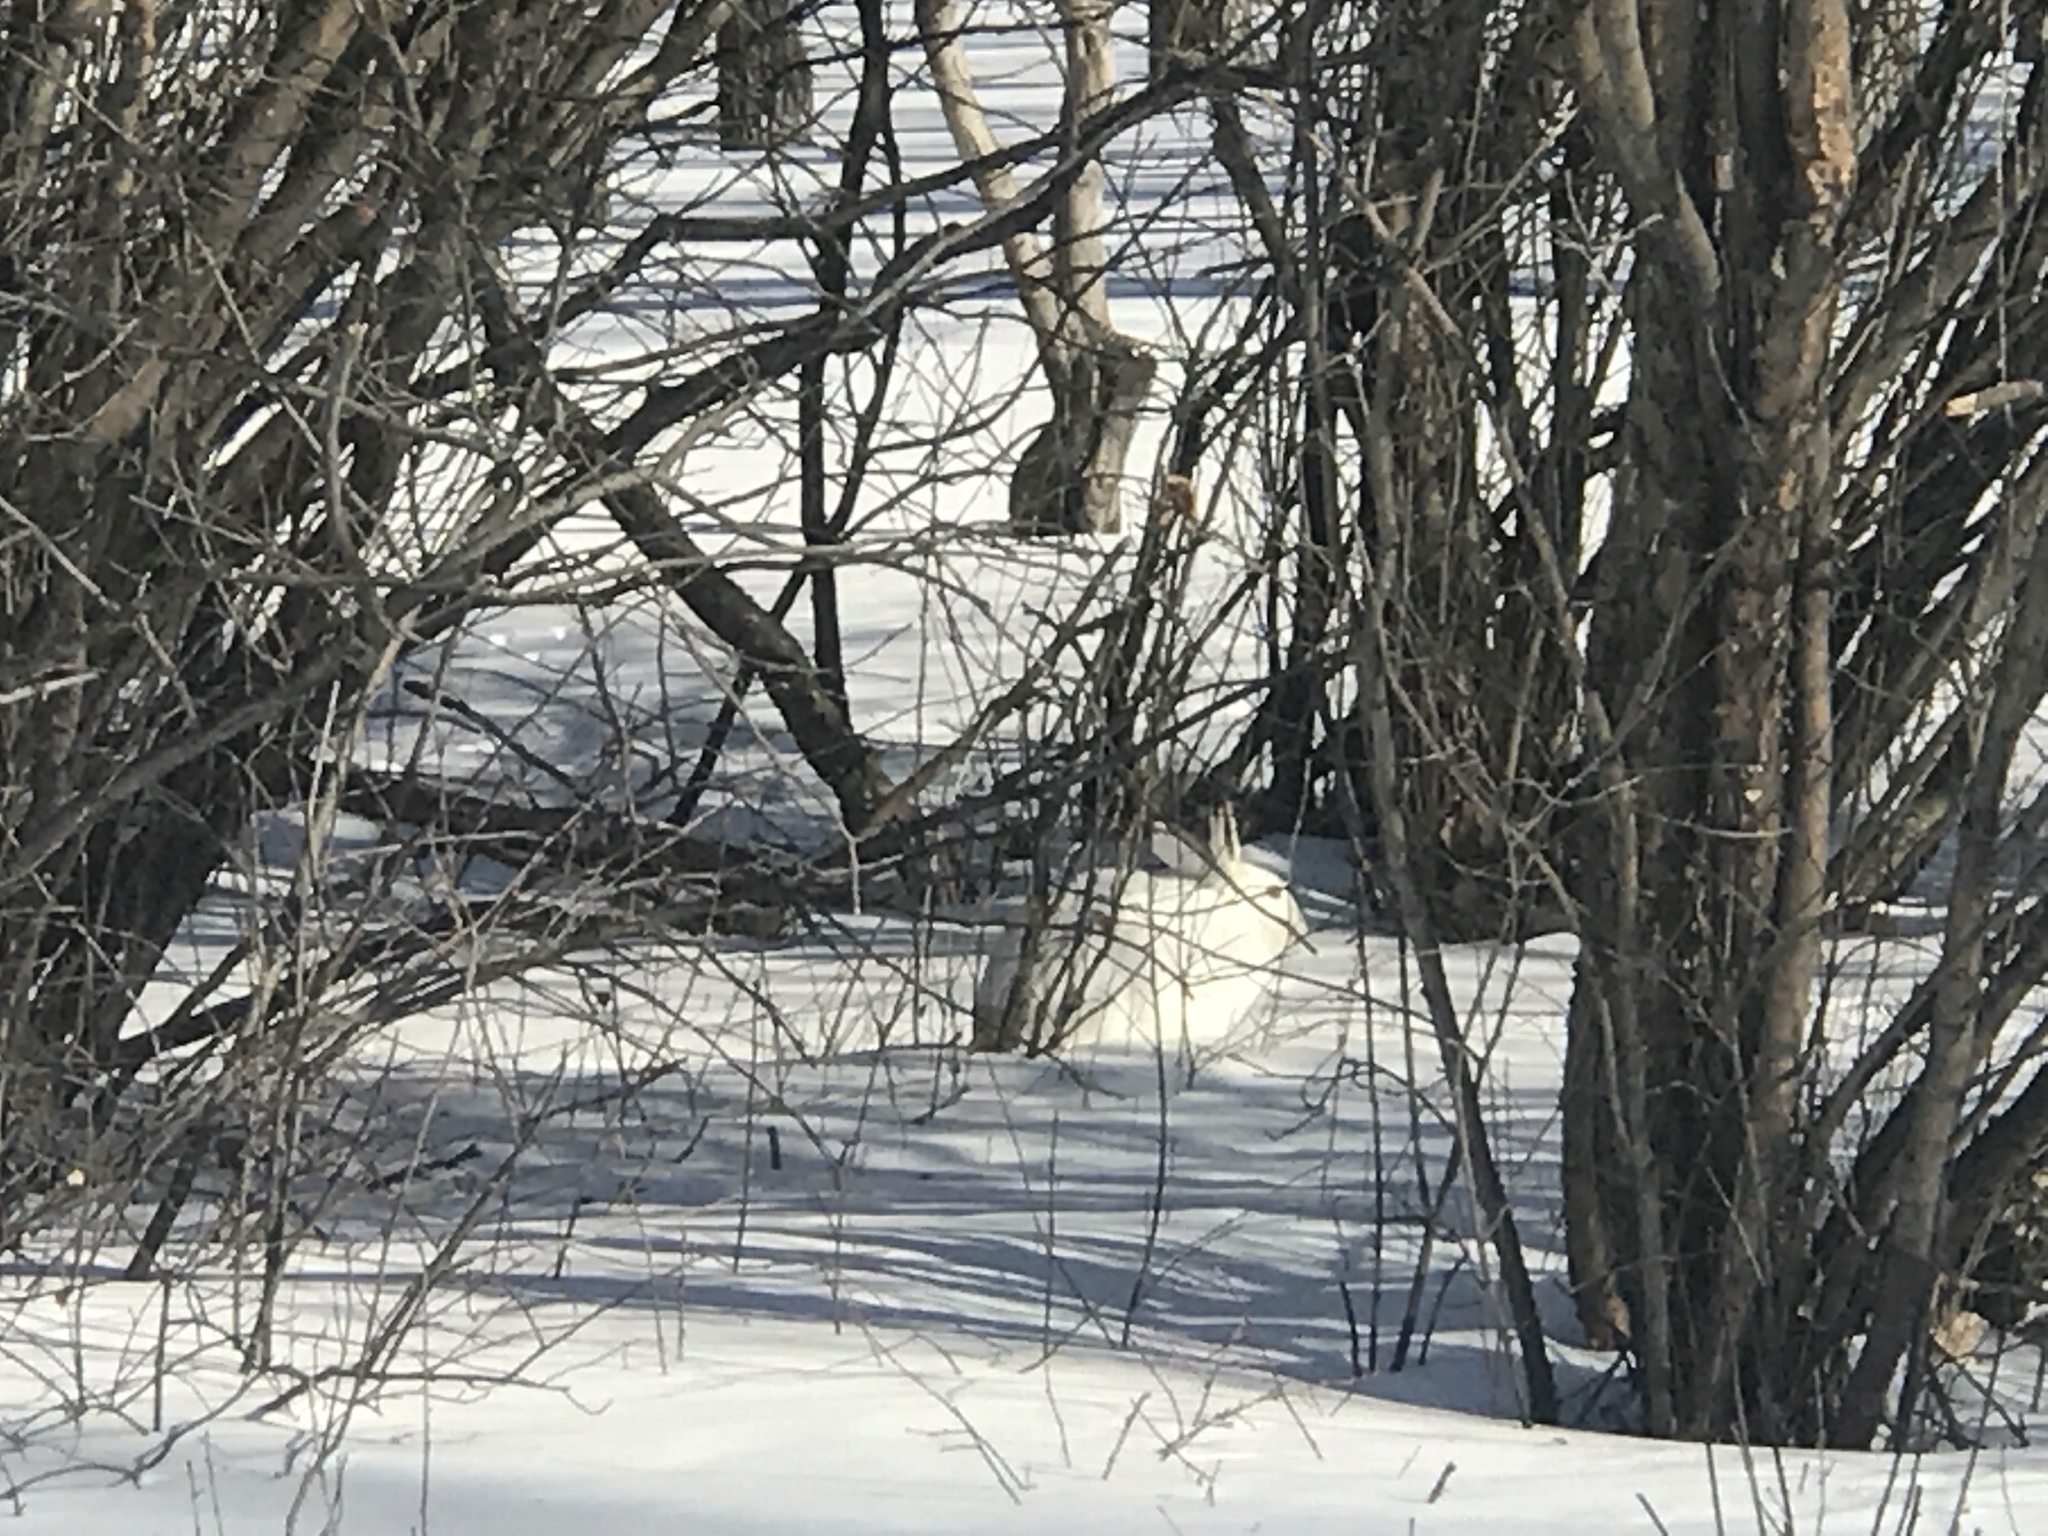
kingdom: Animalia
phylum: Chordata
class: Mammalia
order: Lagomorpha
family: Leporidae
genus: Lepus
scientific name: Lepus townsendii
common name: White-tailed jackrabbit
